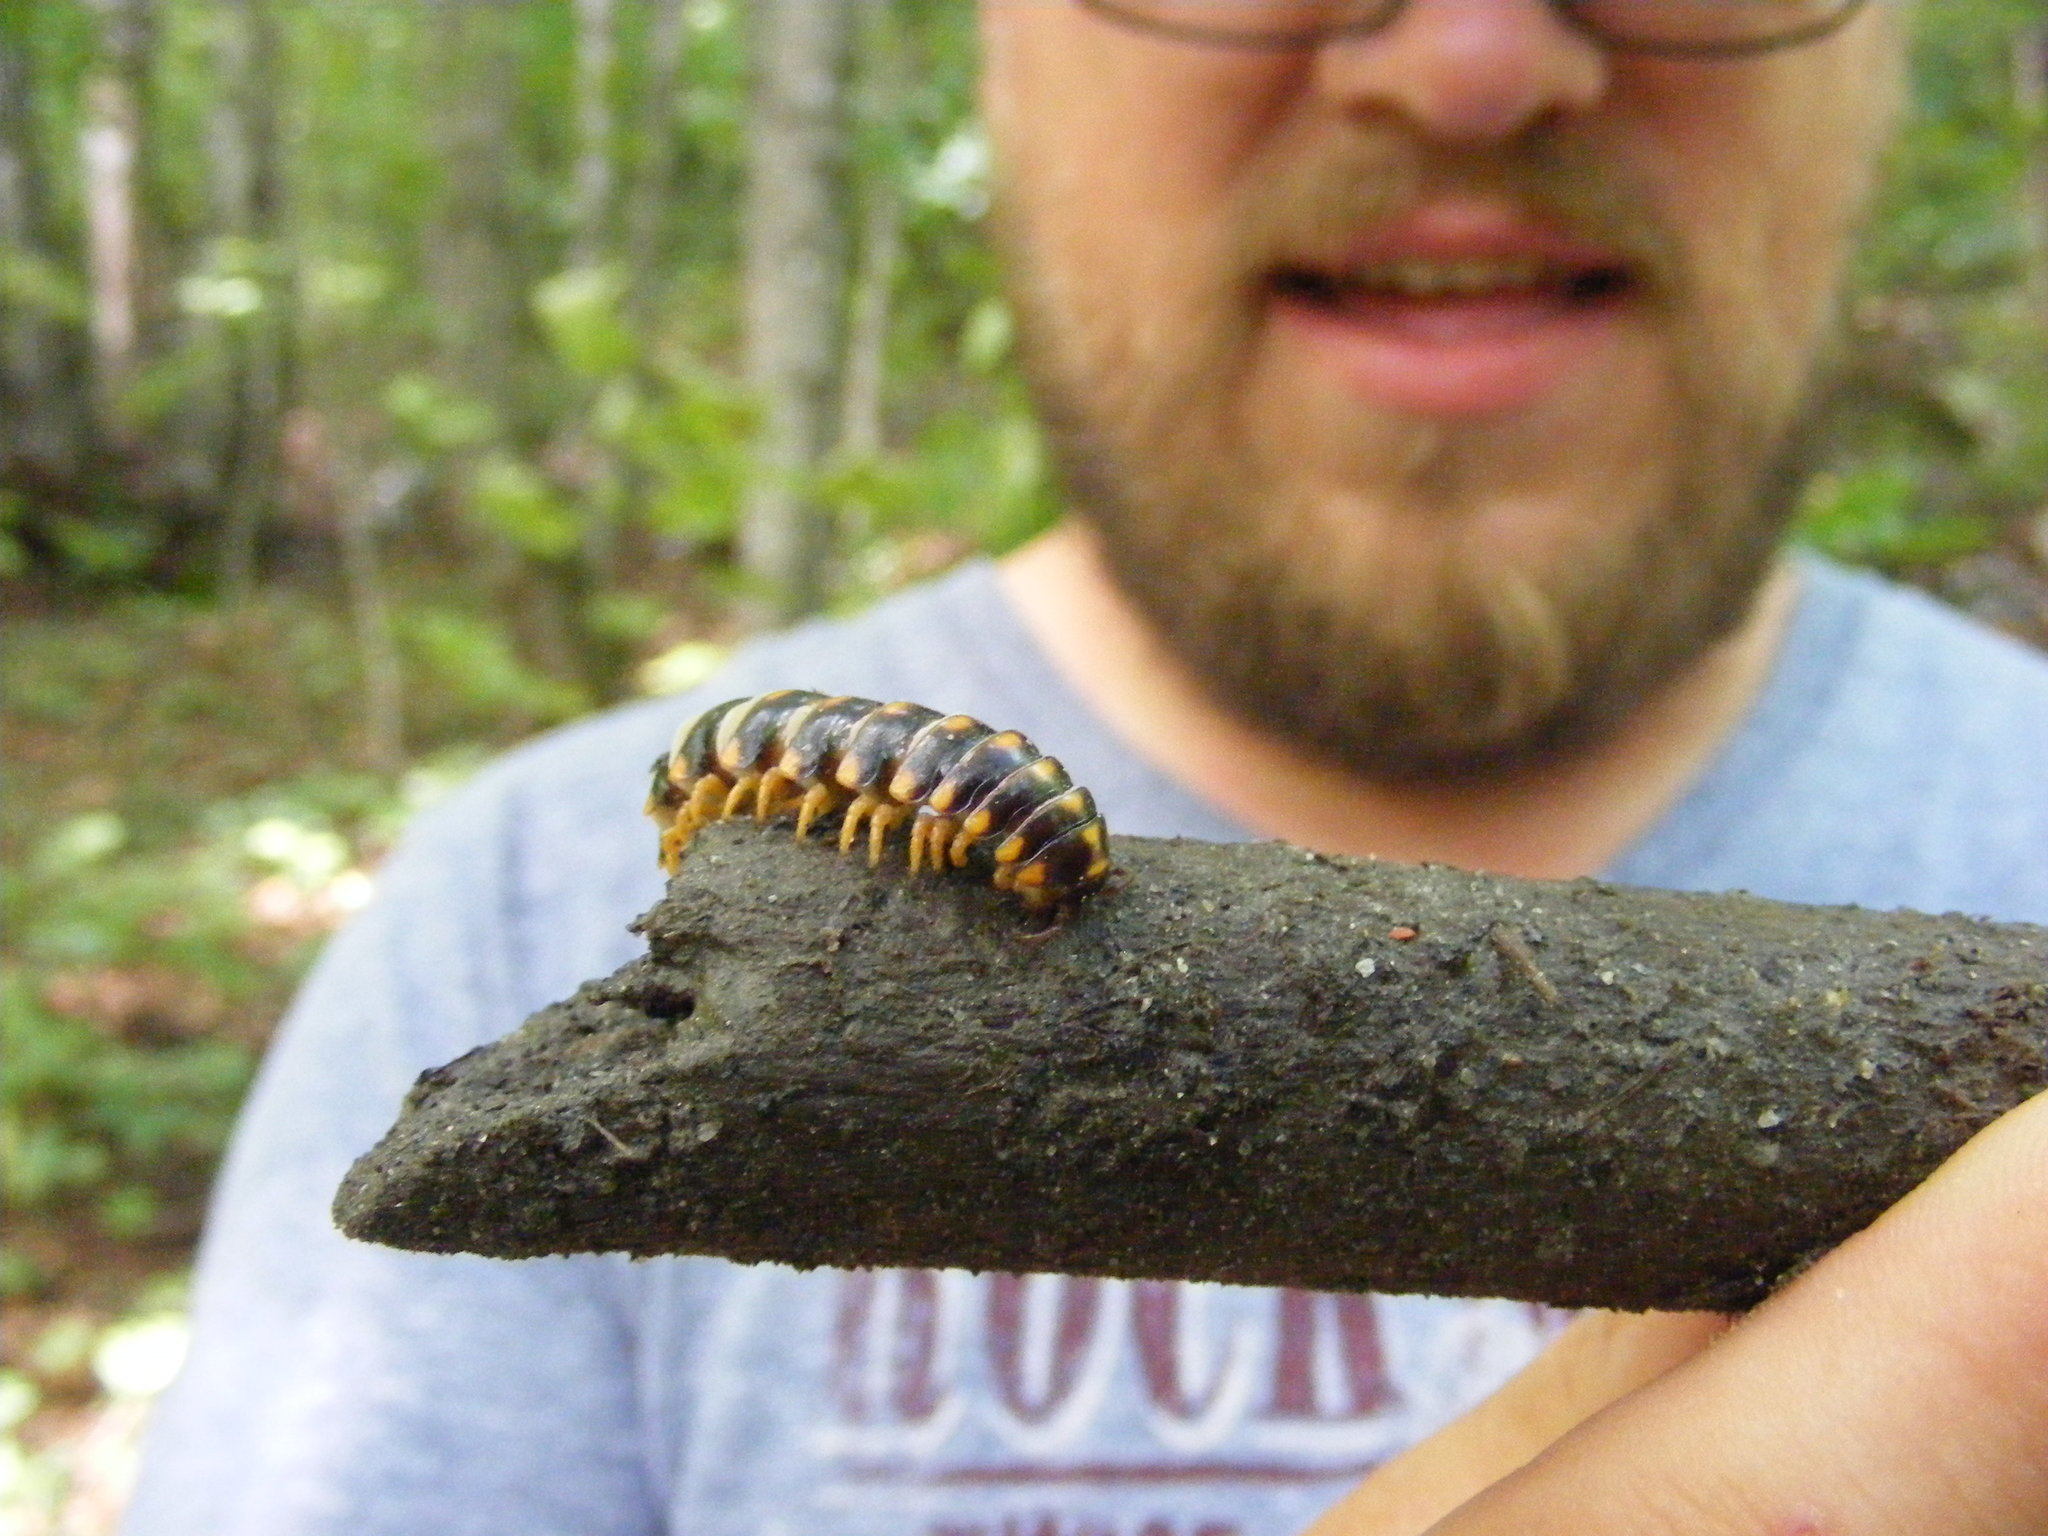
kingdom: Animalia
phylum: Arthropoda
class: Diplopoda
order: Polydesmida
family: Xystodesmidae
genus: Rudiloria
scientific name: Rudiloria trimaculata
